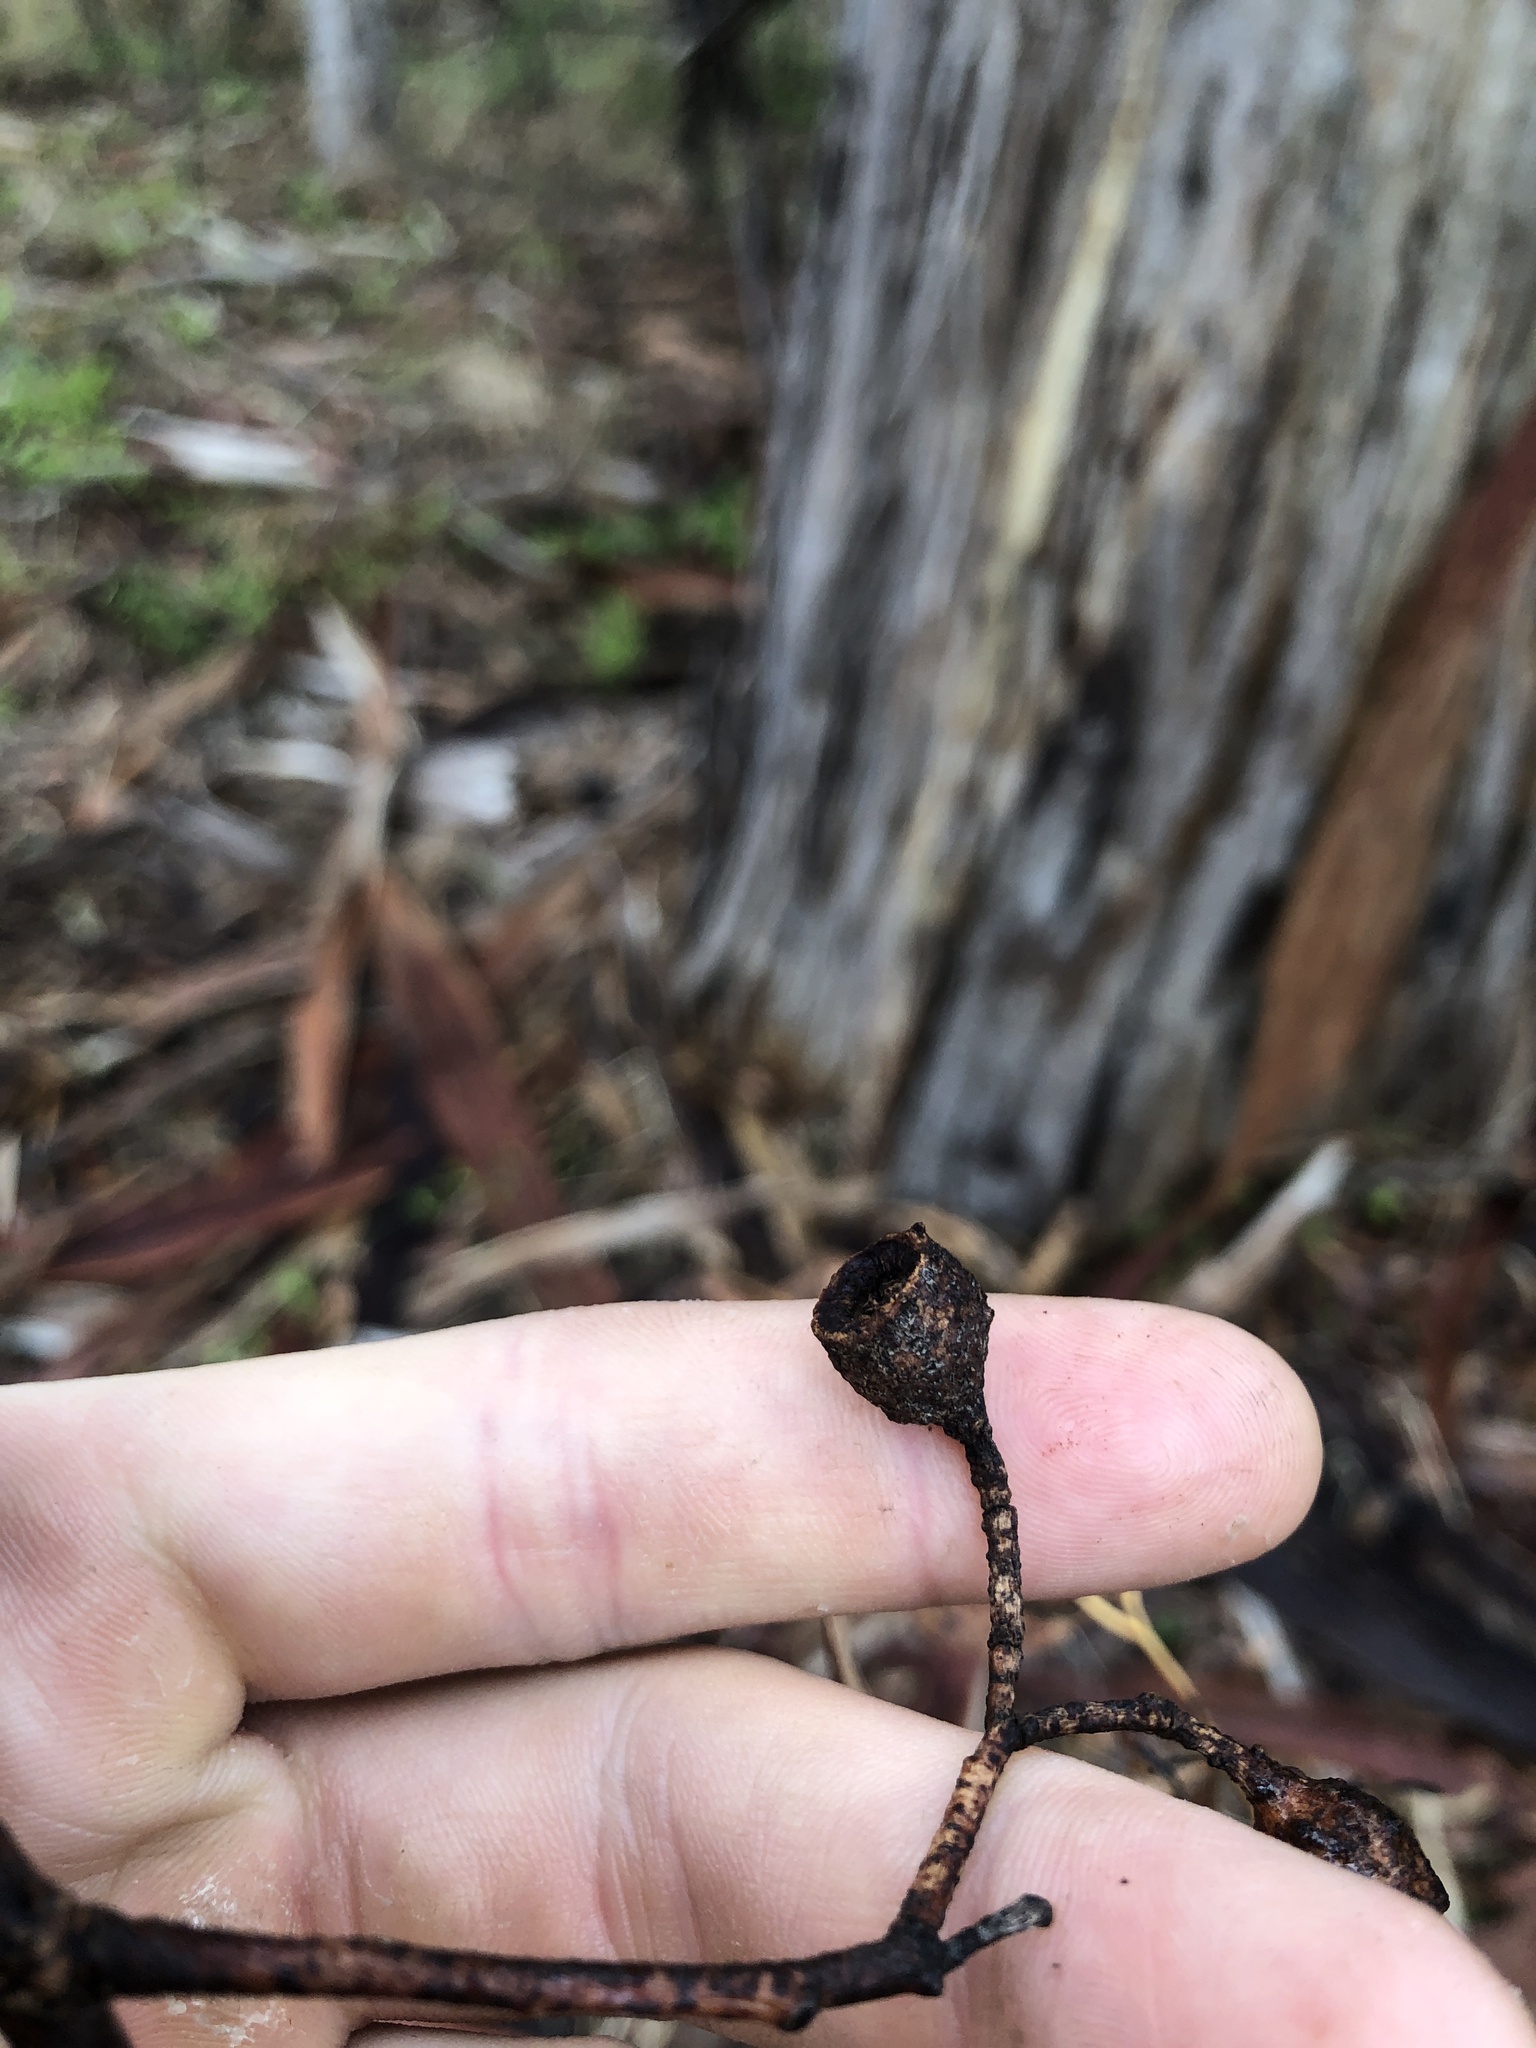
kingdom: Plantae
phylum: Tracheophyta
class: Magnoliopsida
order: Myrtales
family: Myrtaceae
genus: Eucalyptus
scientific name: Eucalyptus leucoxylon
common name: Blue gum
